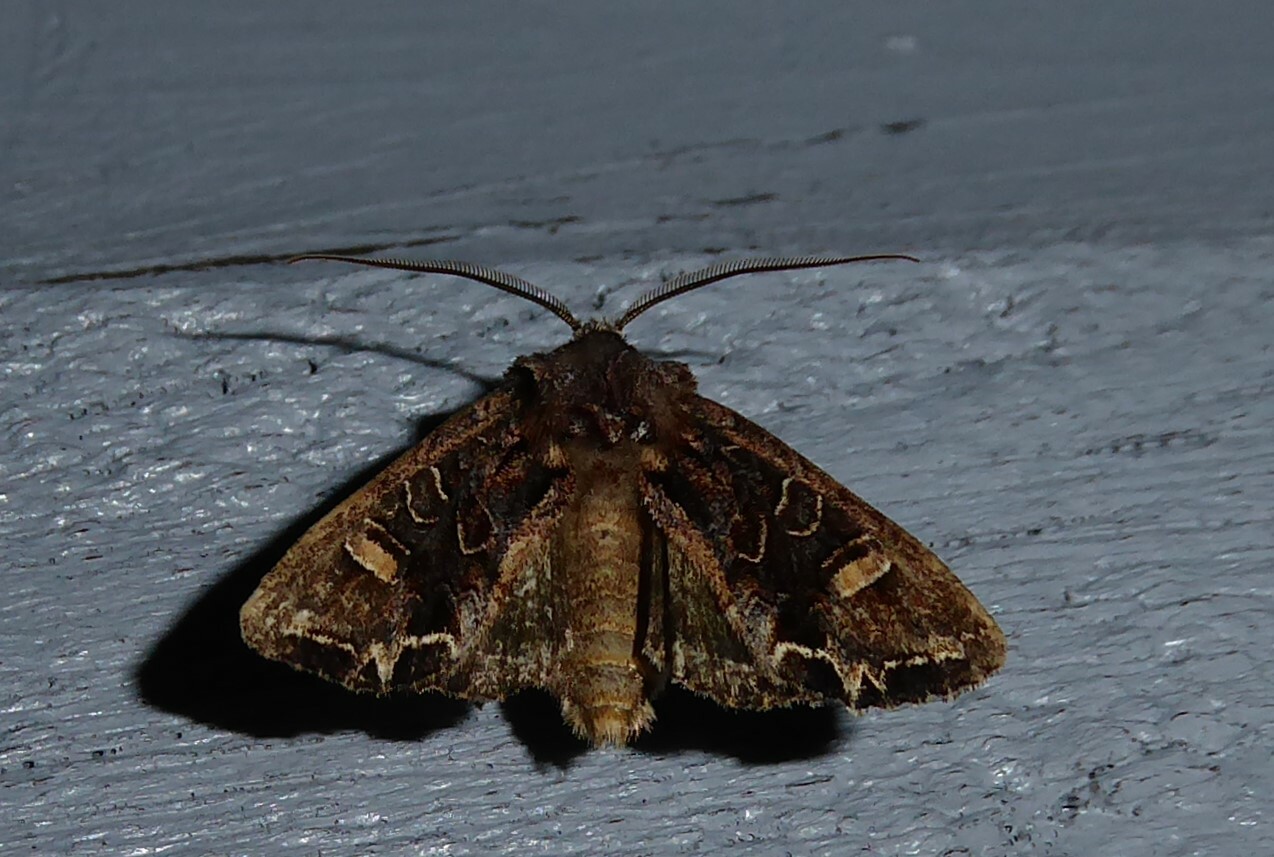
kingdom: Animalia
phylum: Arthropoda
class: Insecta
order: Lepidoptera
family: Noctuidae
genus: Ichneutica
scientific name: Ichneutica insignis
